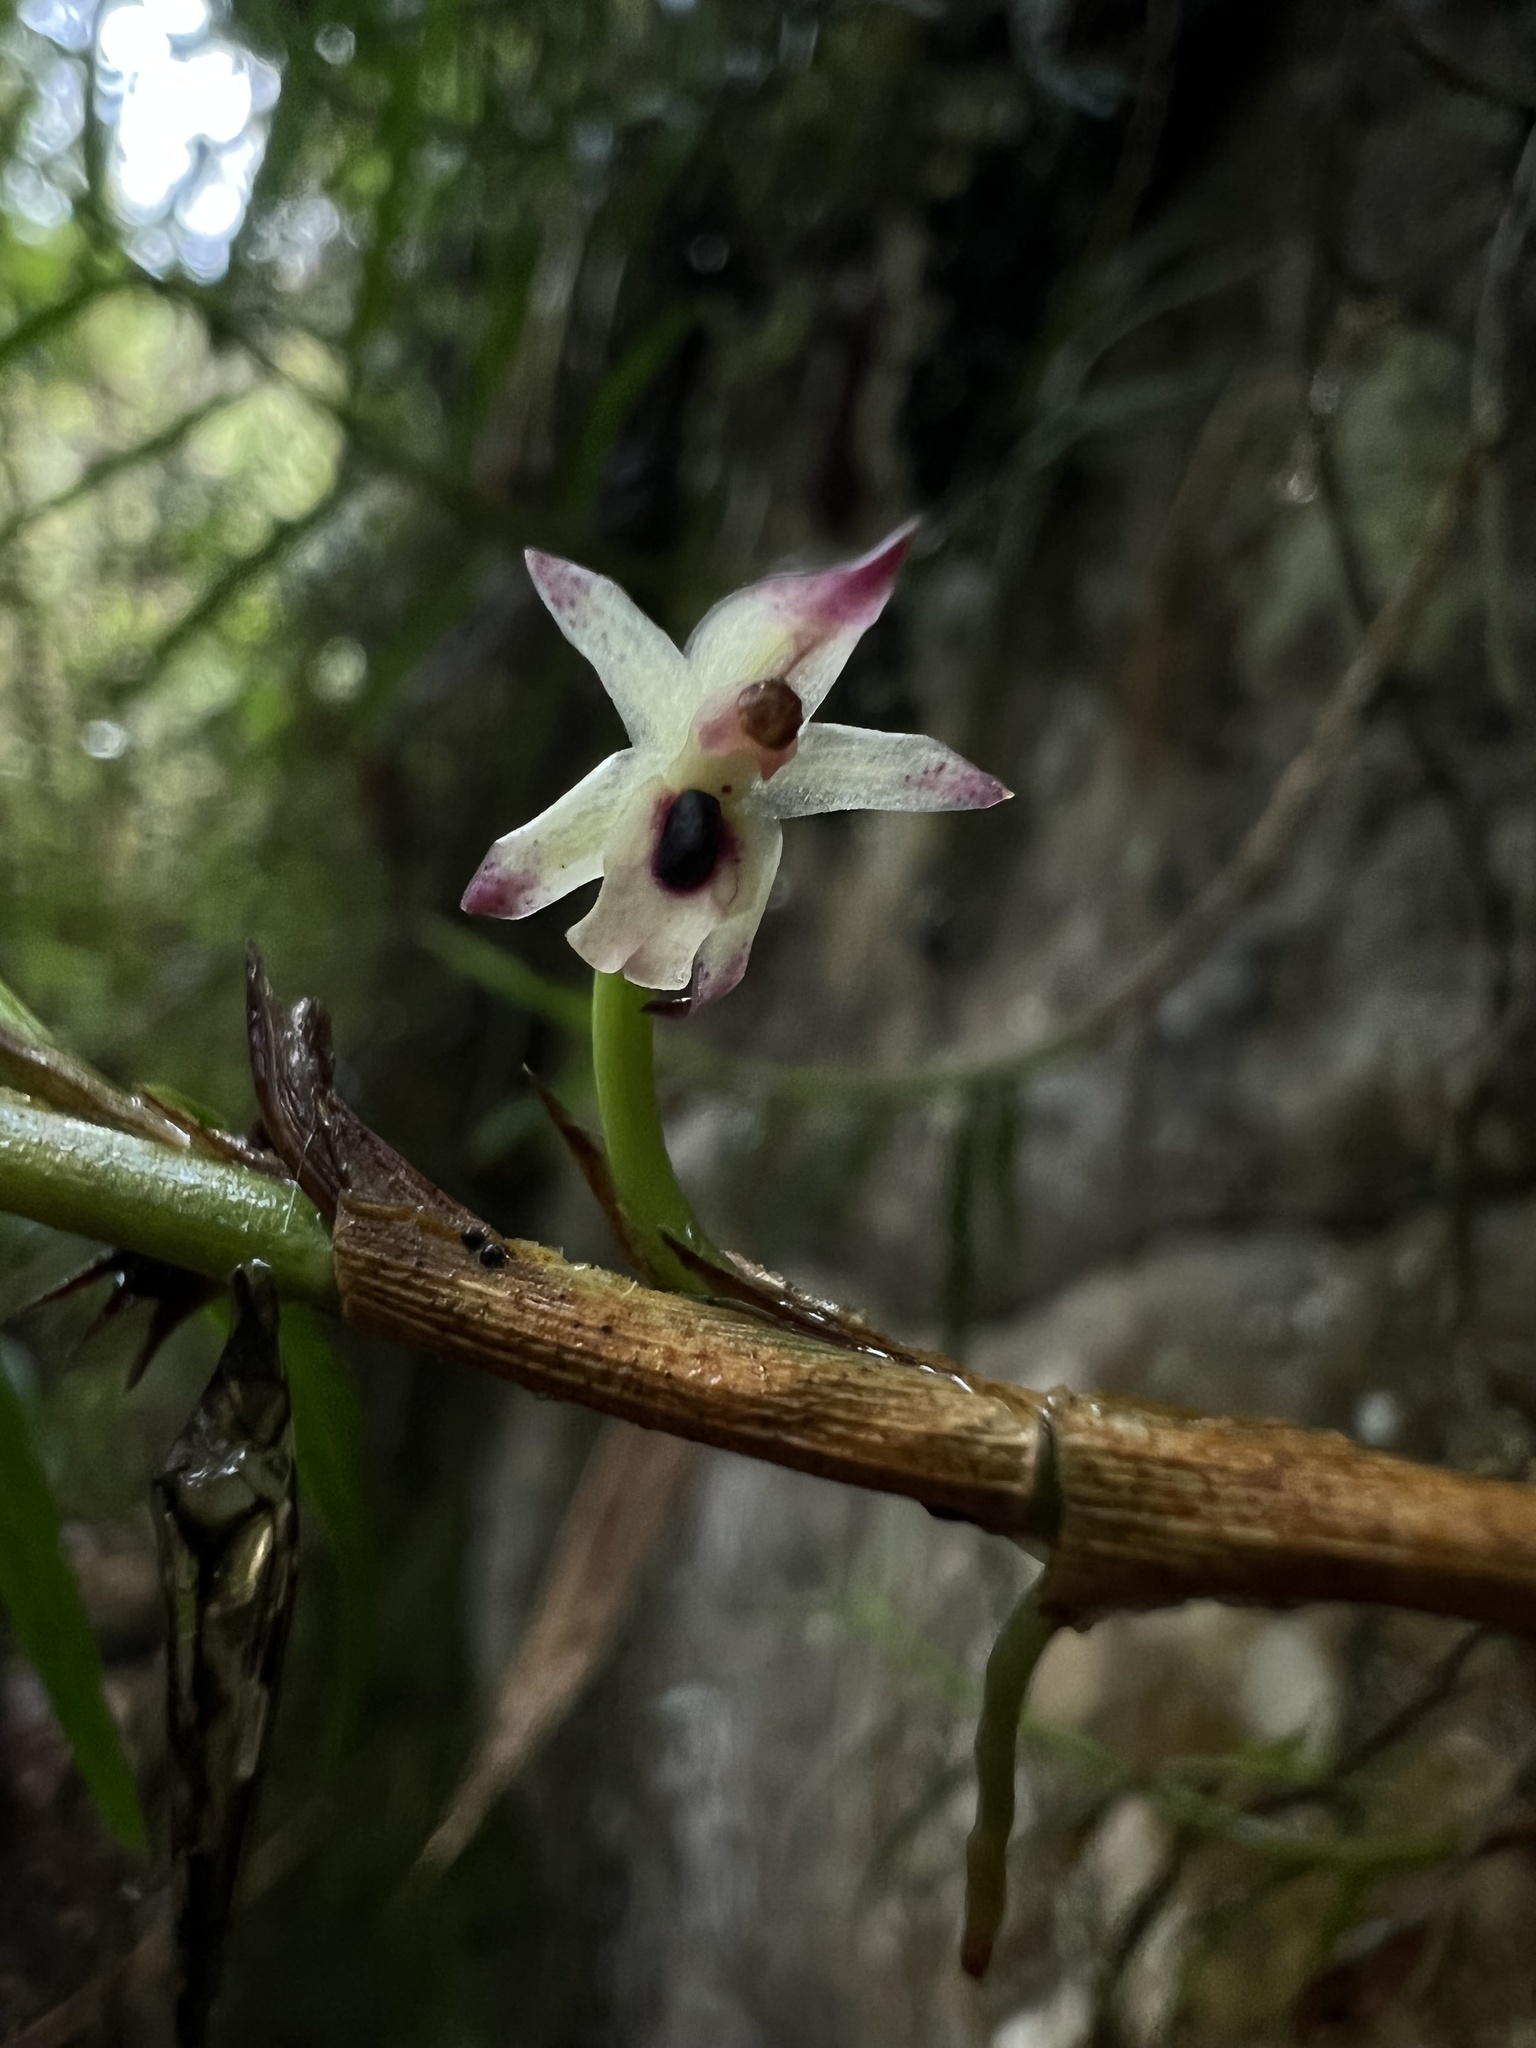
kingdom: Plantae
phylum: Tracheophyta
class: Liliopsida
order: Asparagales
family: Orchidaceae
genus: Maxillaria
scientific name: Maxillaria graminifolia
